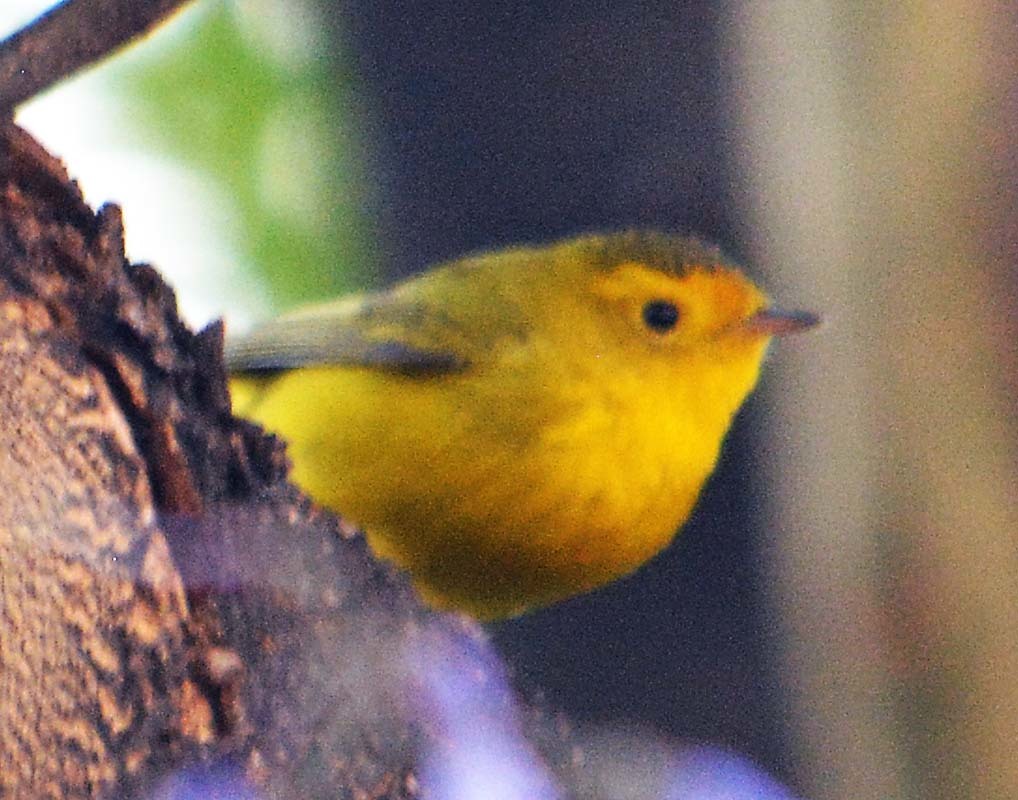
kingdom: Animalia
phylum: Chordata
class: Aves
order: Passeriformes
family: Parulidae
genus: Cardellina
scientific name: Cardellina pusilla
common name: Wilson's warbler
